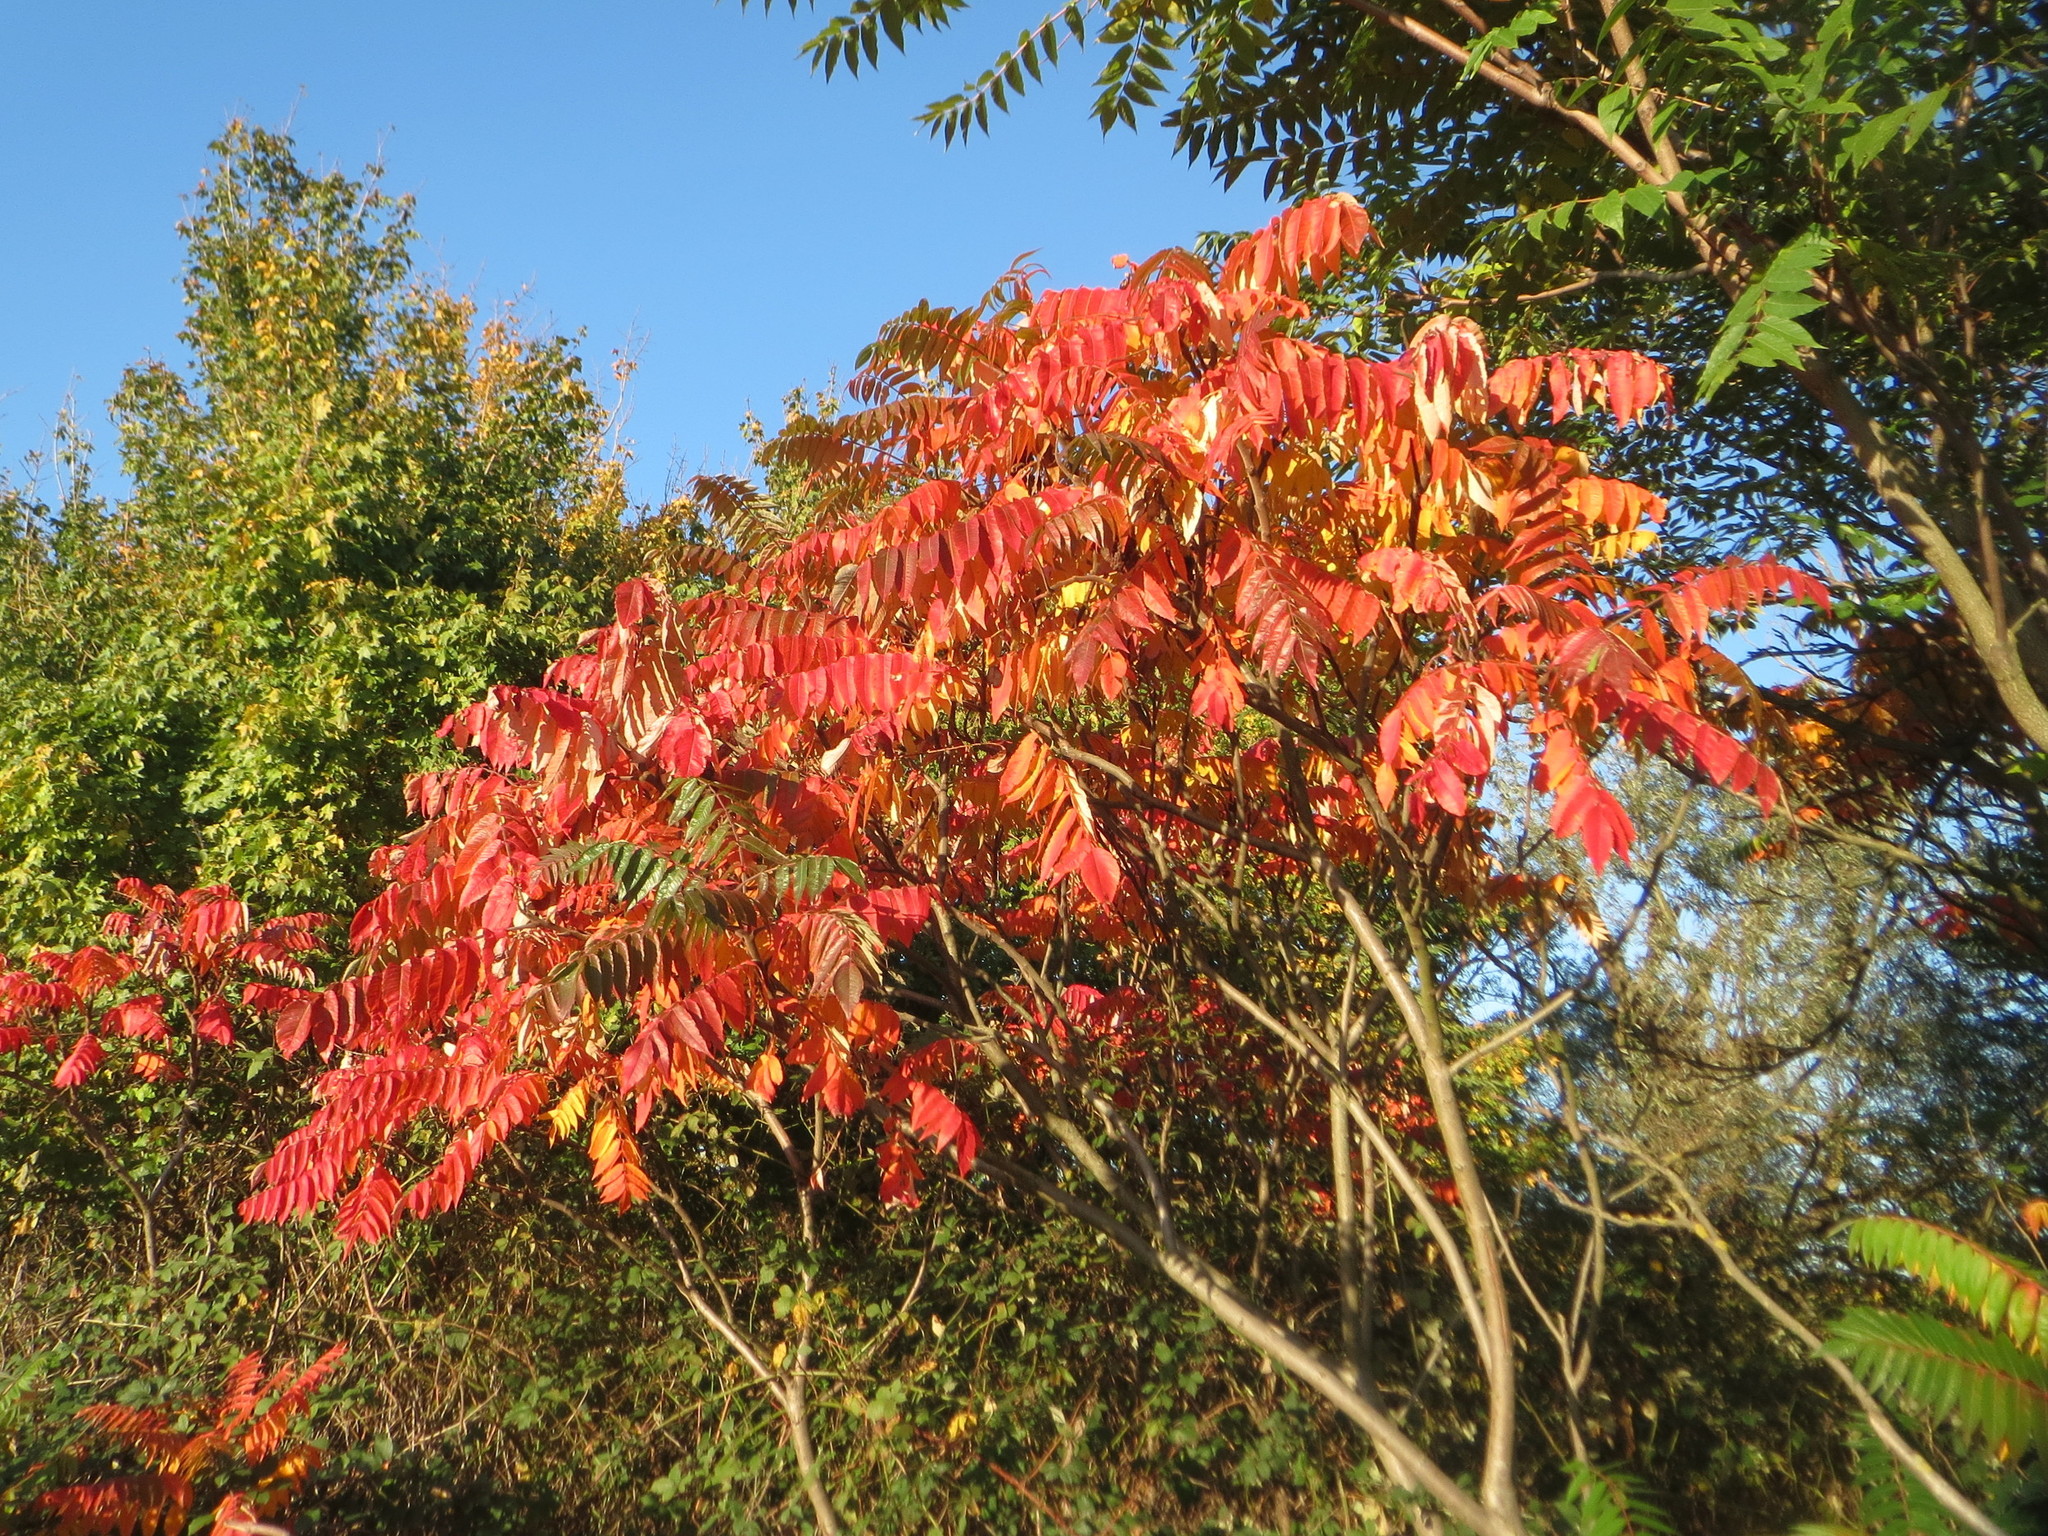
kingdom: Plantae
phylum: Tracheophyta
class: Magnoliopsida
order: Sapindales
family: Anacardiaceae
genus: Rhus
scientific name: Rhus typhina
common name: Staghorn sumac
